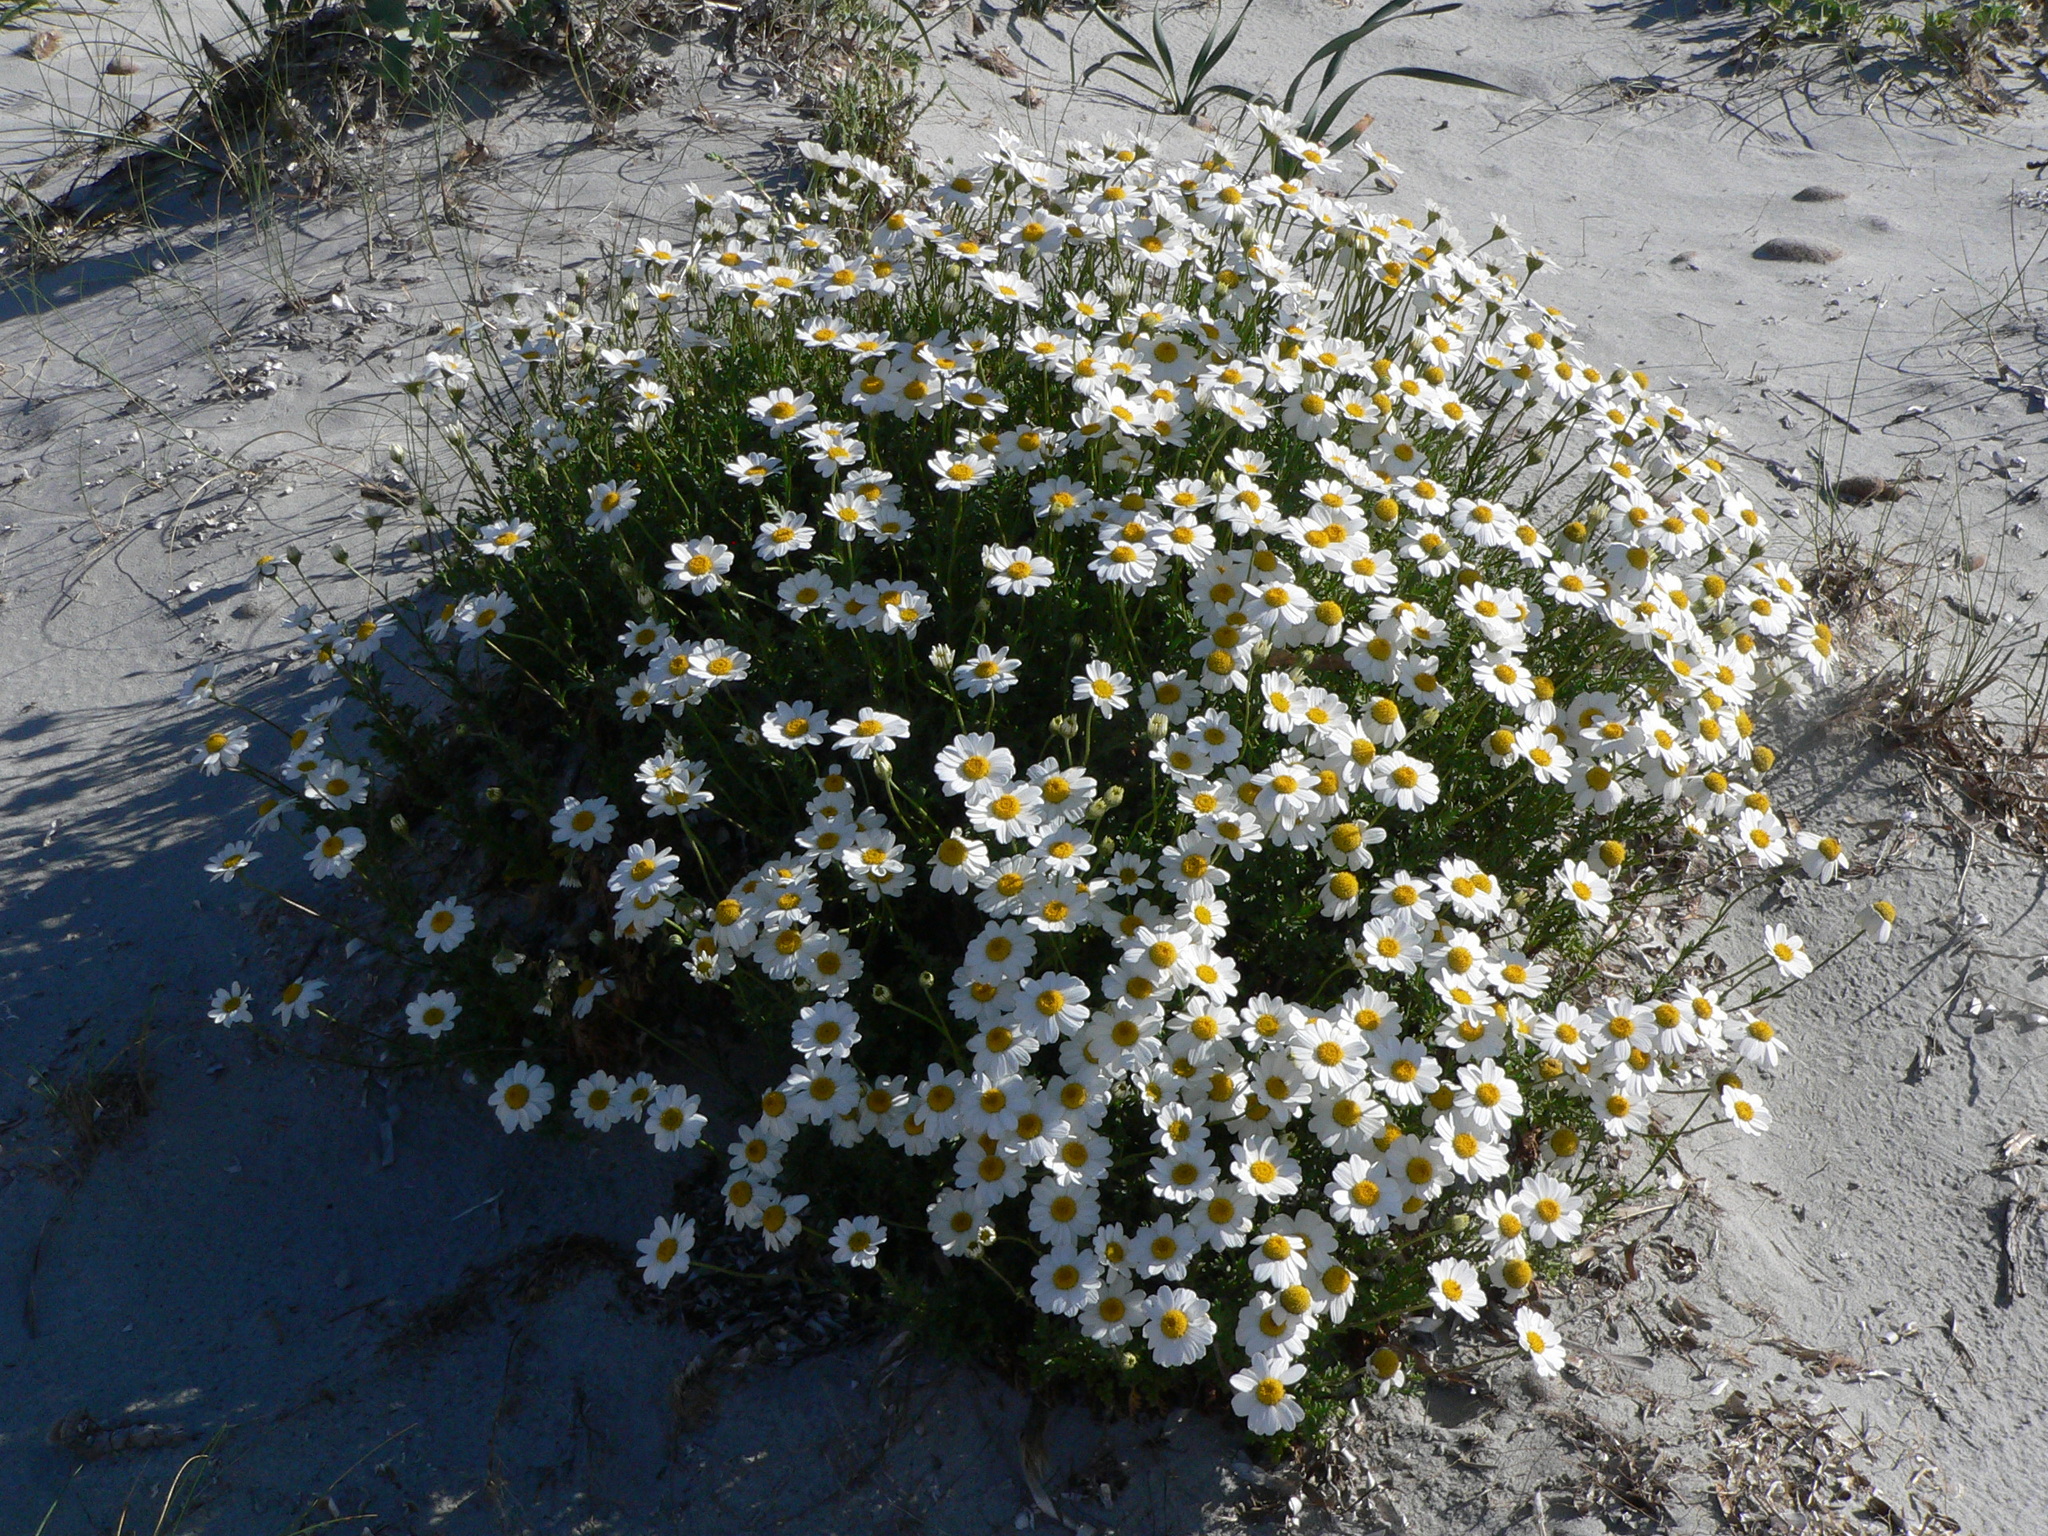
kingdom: Plantae
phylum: Tracheophyta
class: Magnoliopsida
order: Asterales
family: Asteraceae
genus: Anthemis
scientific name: Anthemis maritima
